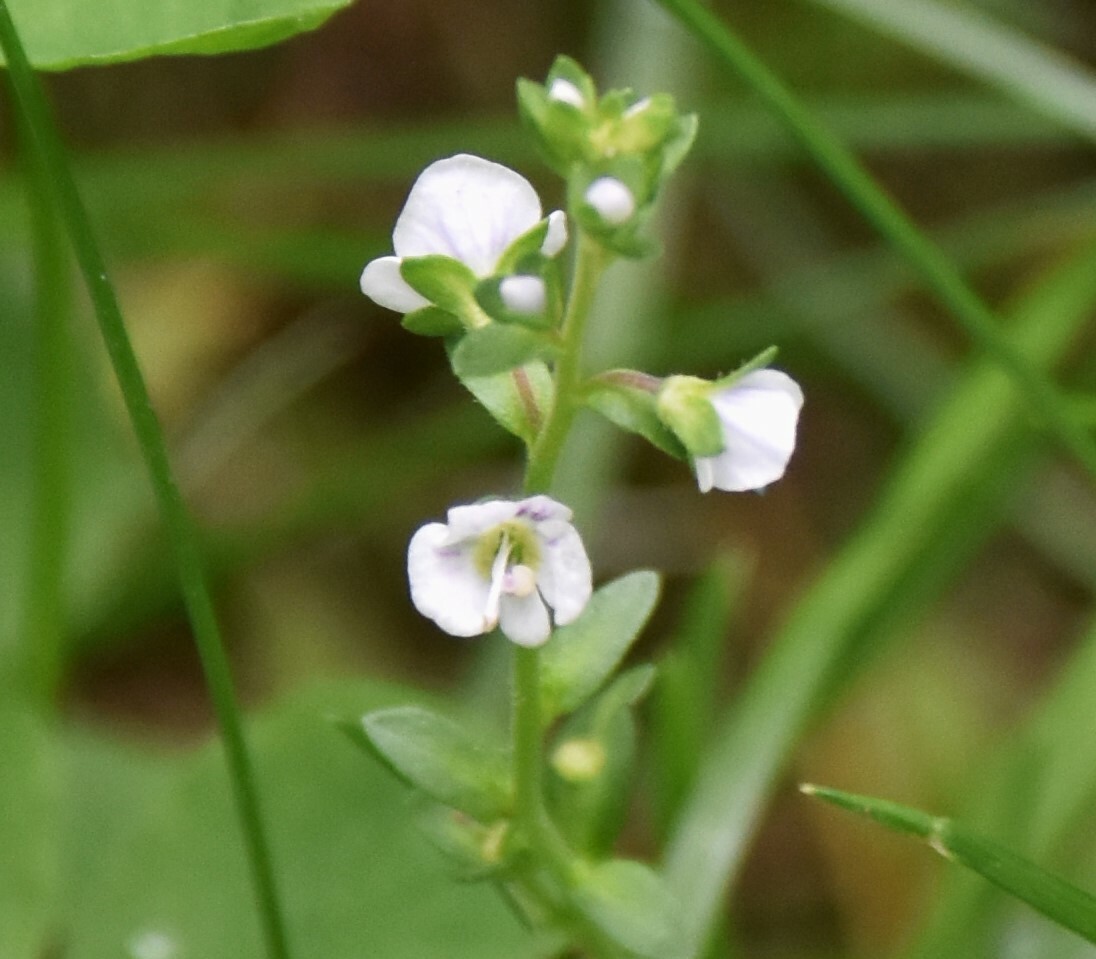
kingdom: Plantae
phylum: Tracheophyta
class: Magnoliopsida
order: Lamiales
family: Plantaginaceae
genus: Veronica
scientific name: Veronica serpyllifolia
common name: Thyme-leaved speedwell
